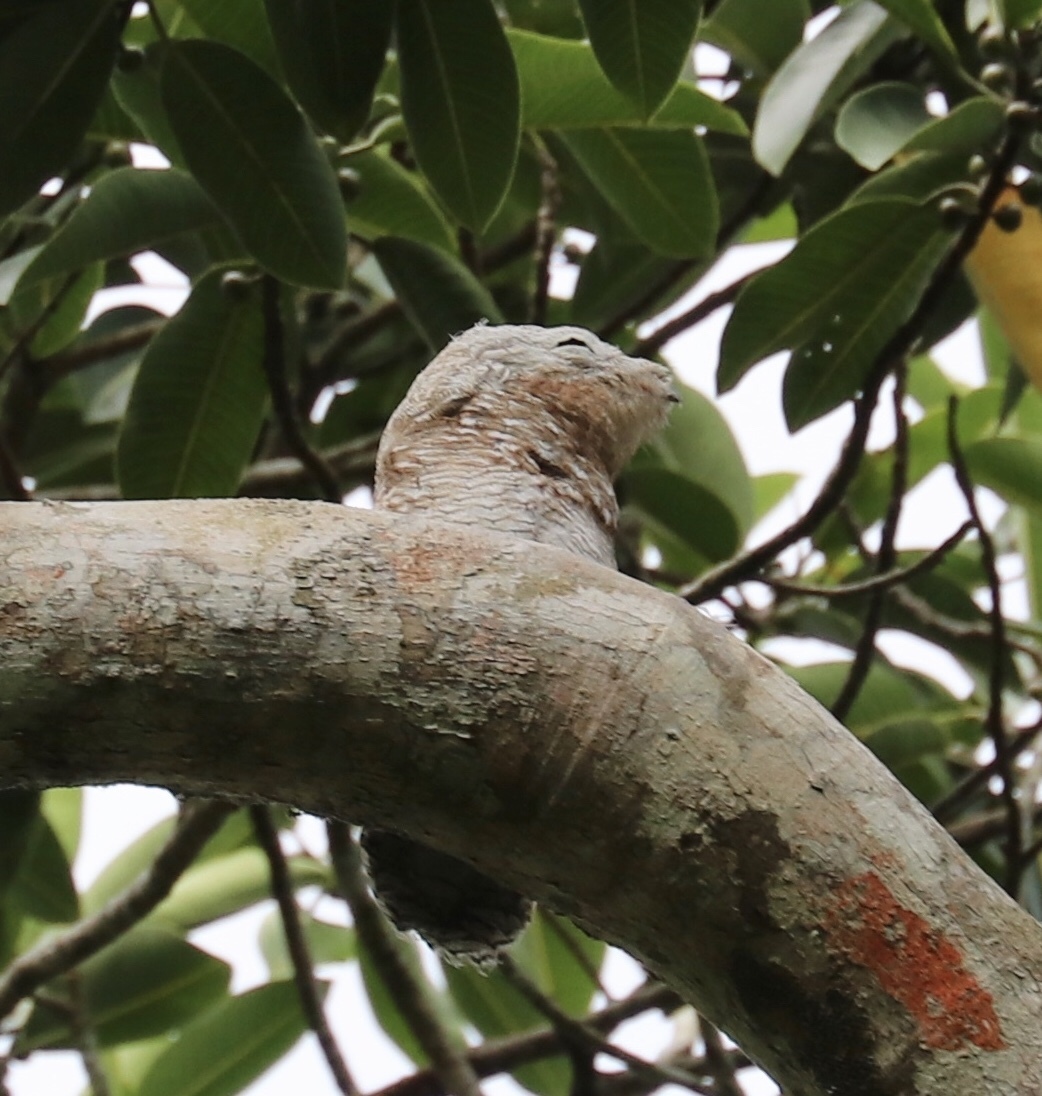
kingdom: Animalia
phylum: Chordata
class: Aves
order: Nyctibiiformes
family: Nyctibiidae
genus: Nyctibius
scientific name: Nyctibius grandis
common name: Great potoo
